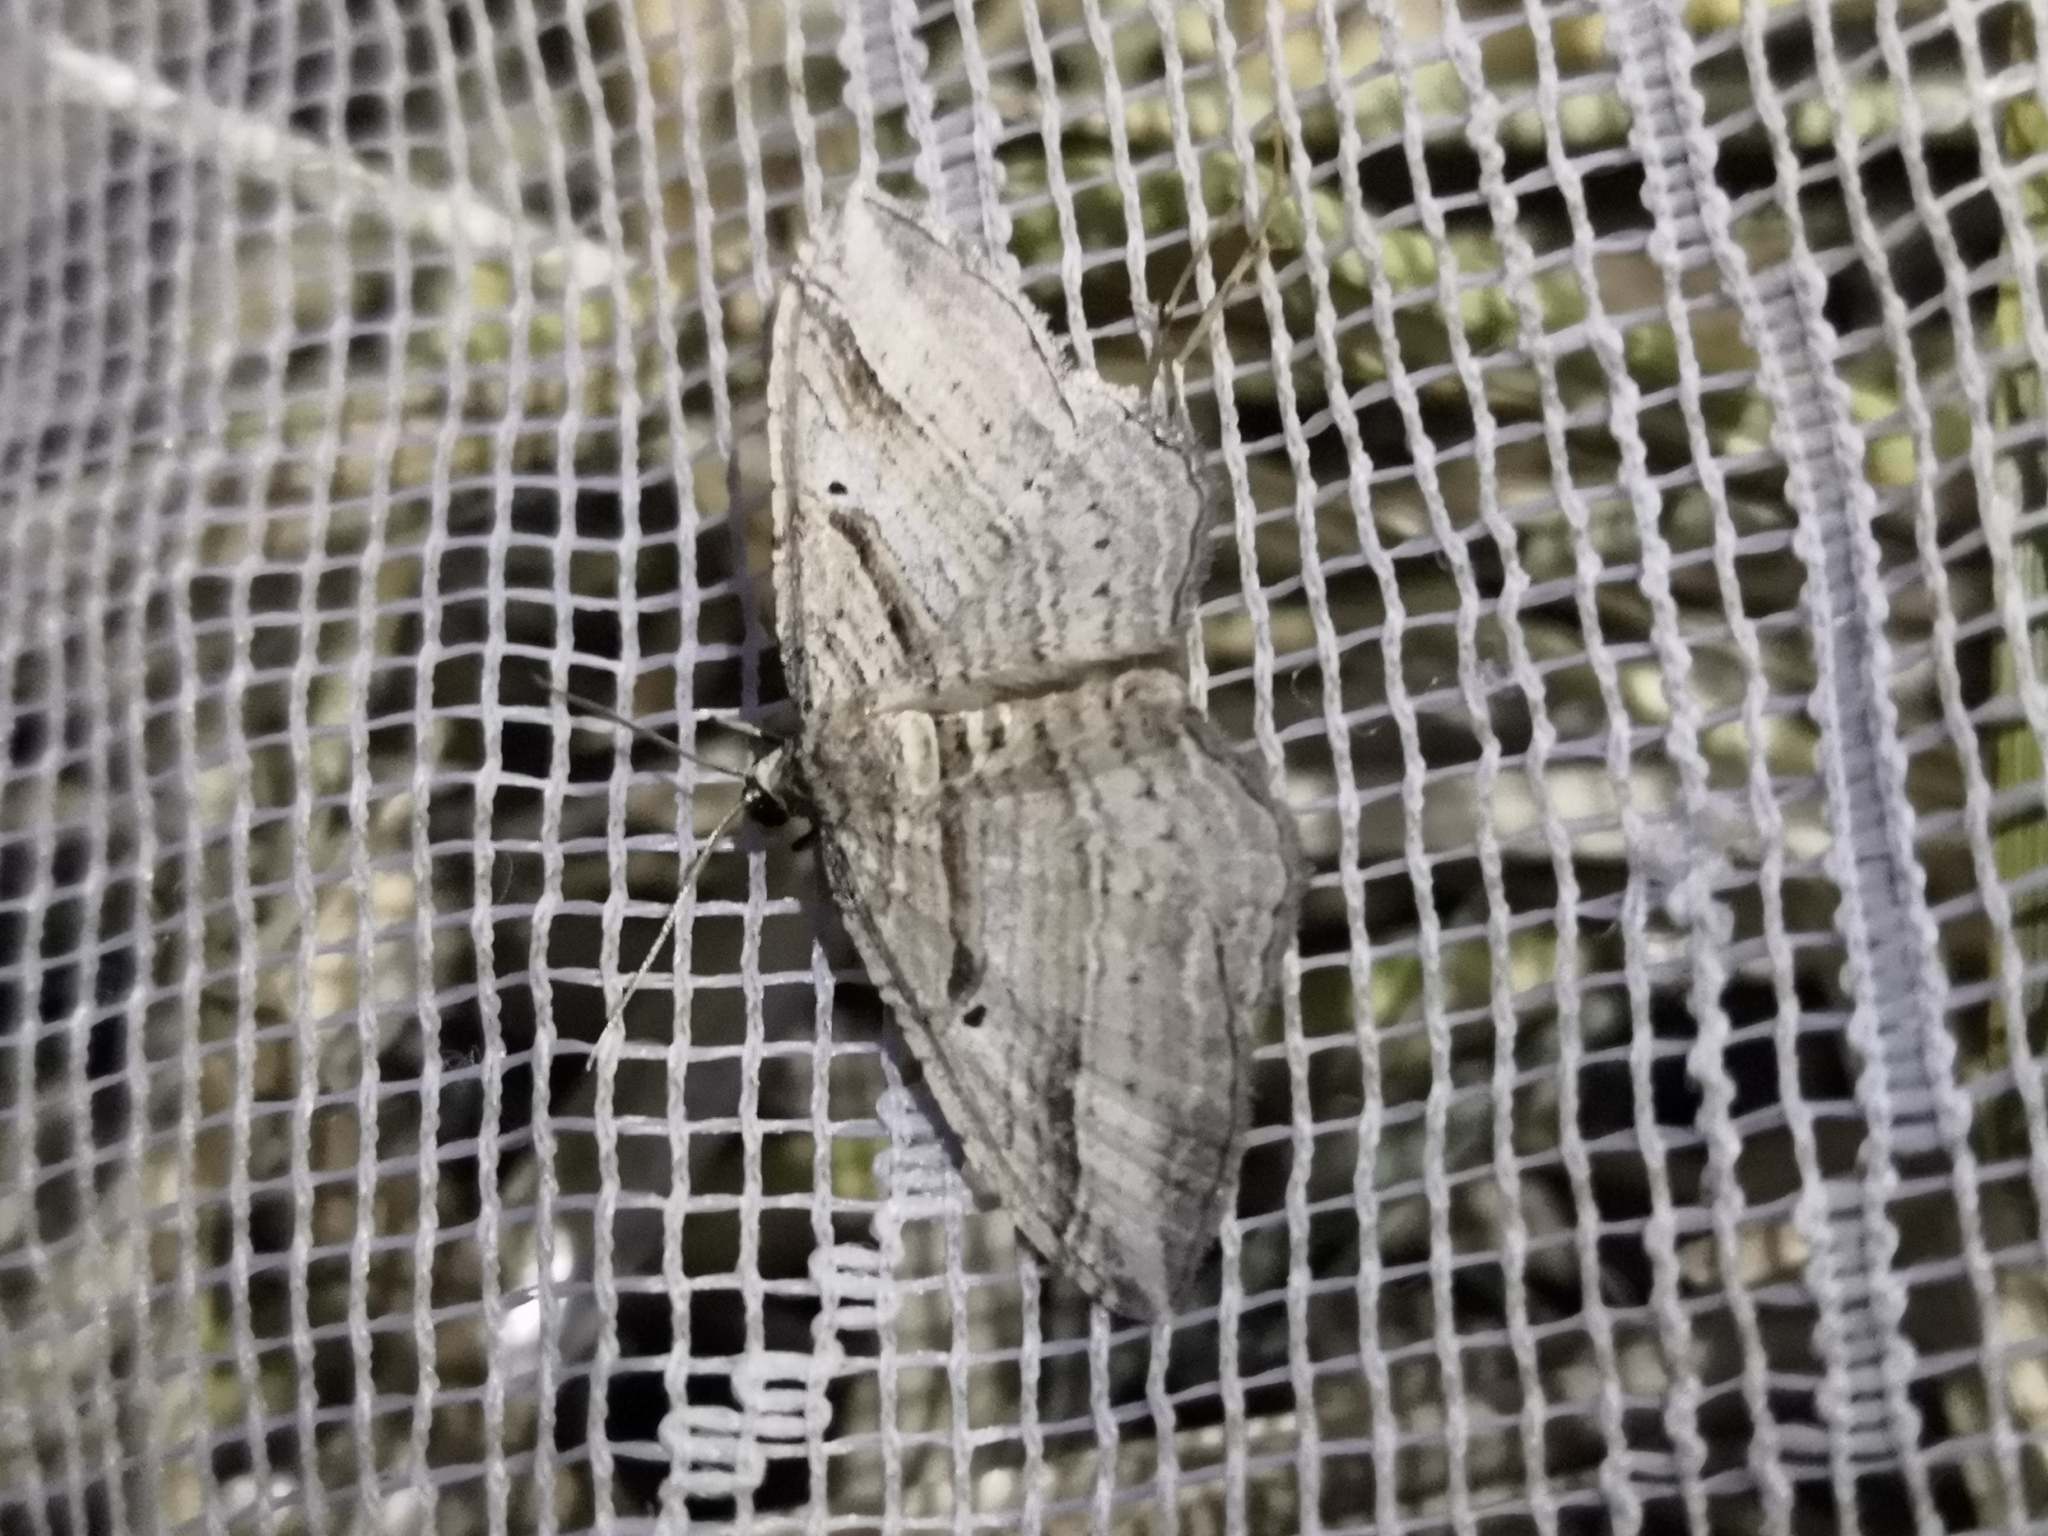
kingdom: Animalia
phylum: Arthropoda
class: Insecta
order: Lepidoptera
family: Geometridae
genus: Costaconvexa
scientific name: Costaconvexa polygrammata
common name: Many-lined
